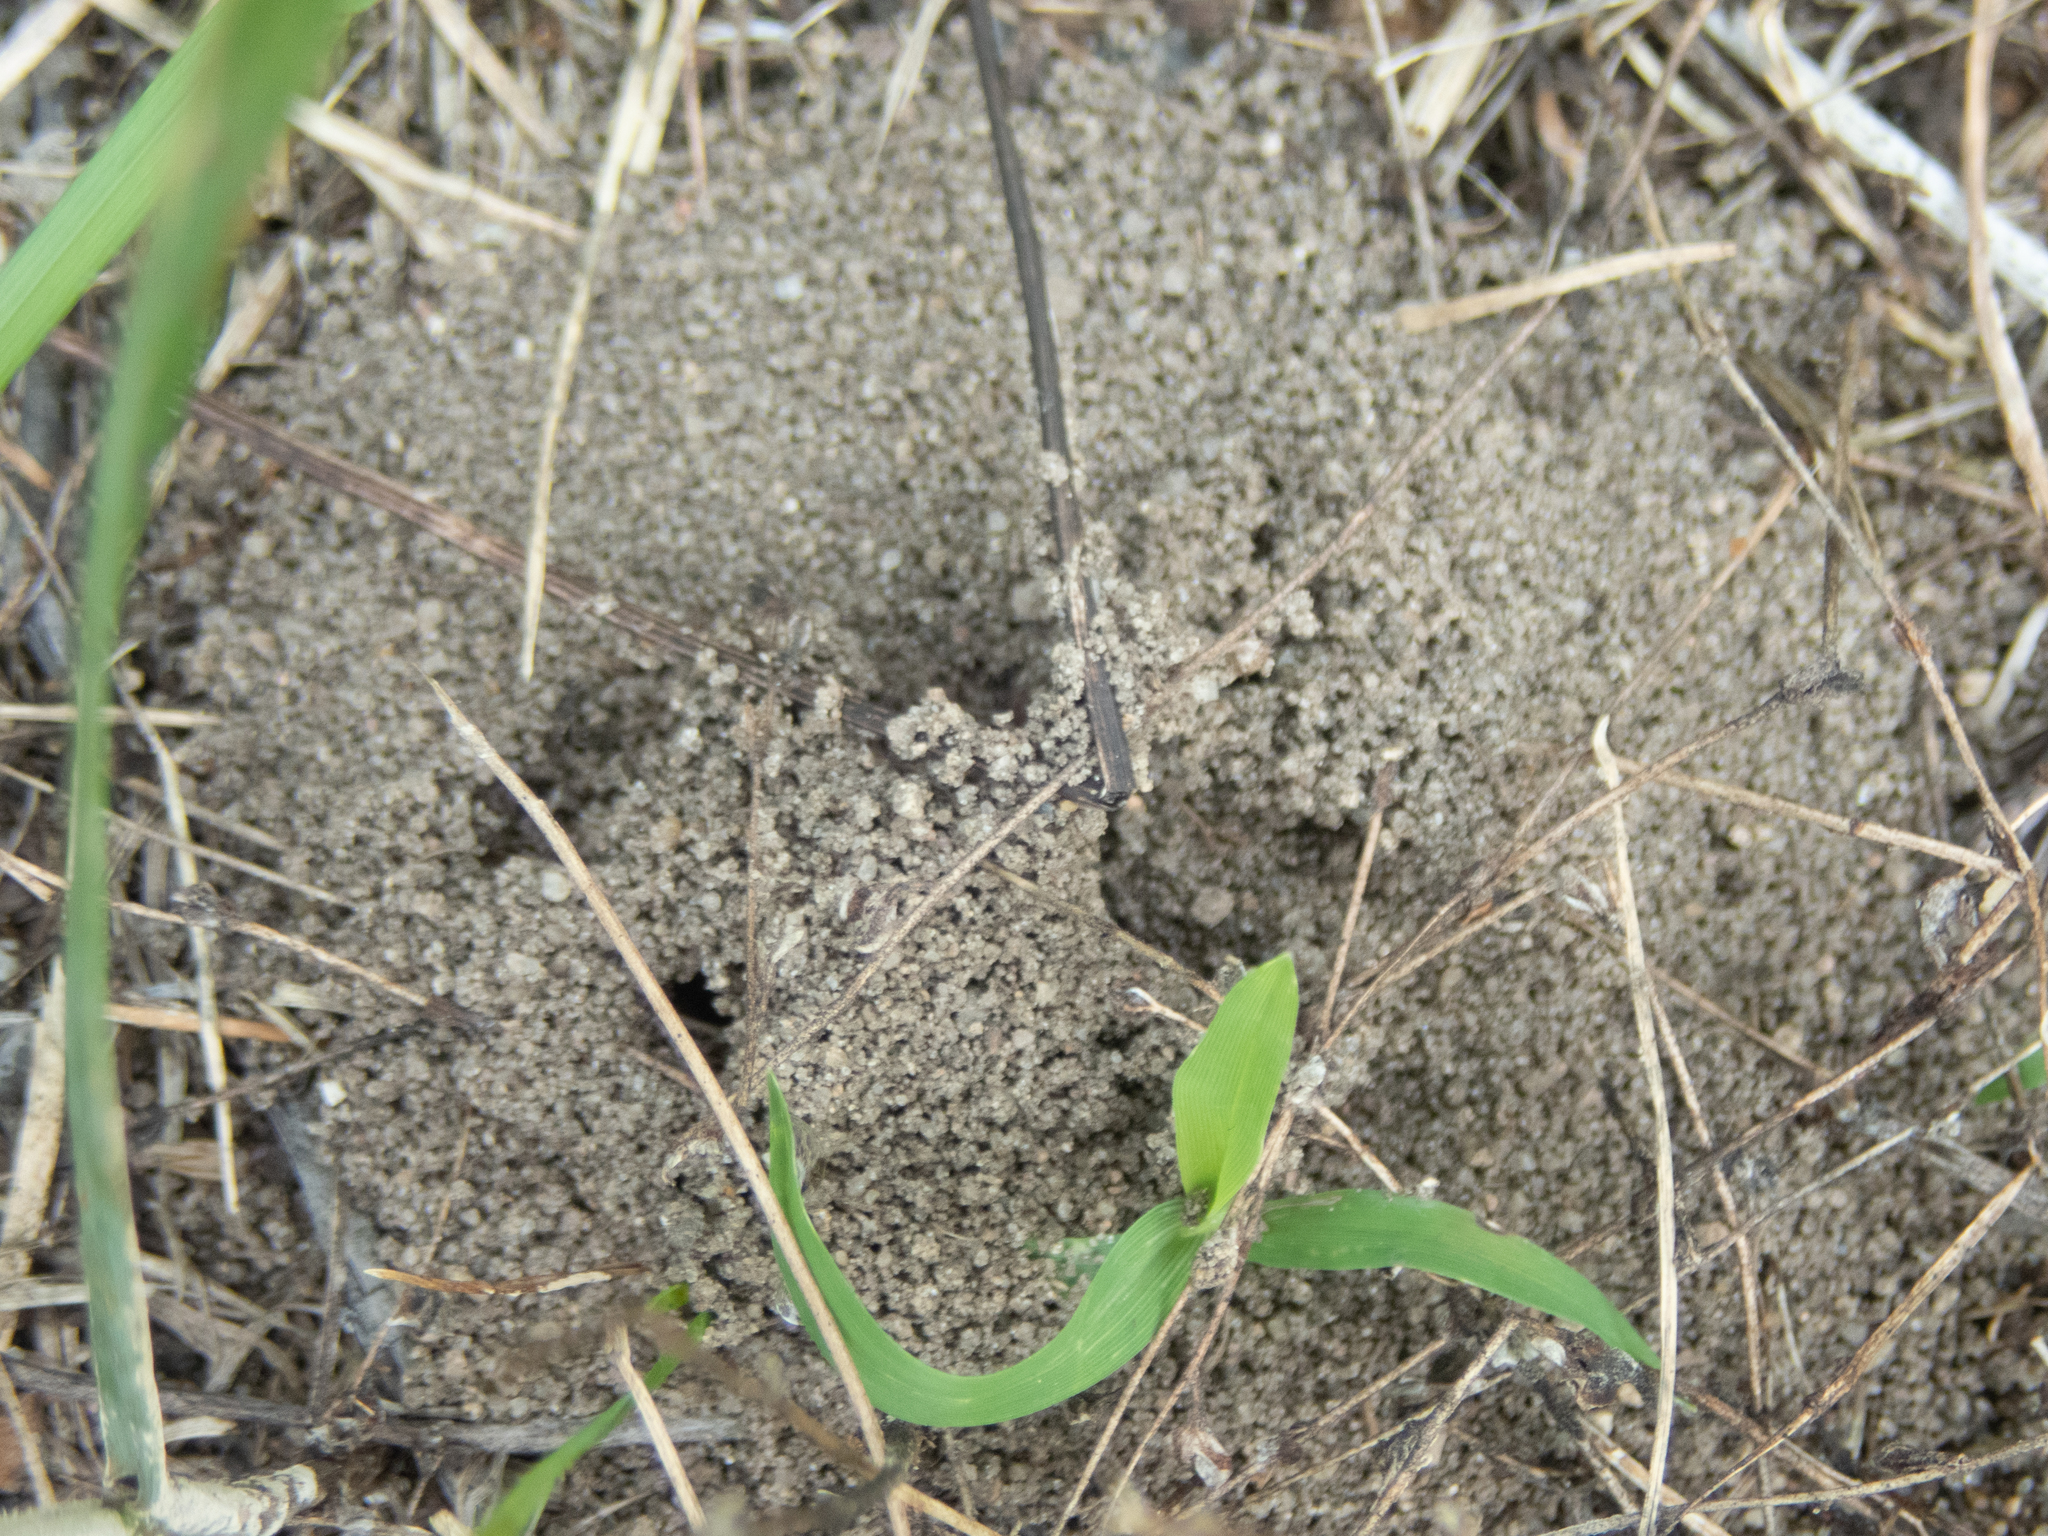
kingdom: Animalia
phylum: Arthropoda
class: Insecta
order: Hymenoptera
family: Formicidae
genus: Formica
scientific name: Formica pergandei
